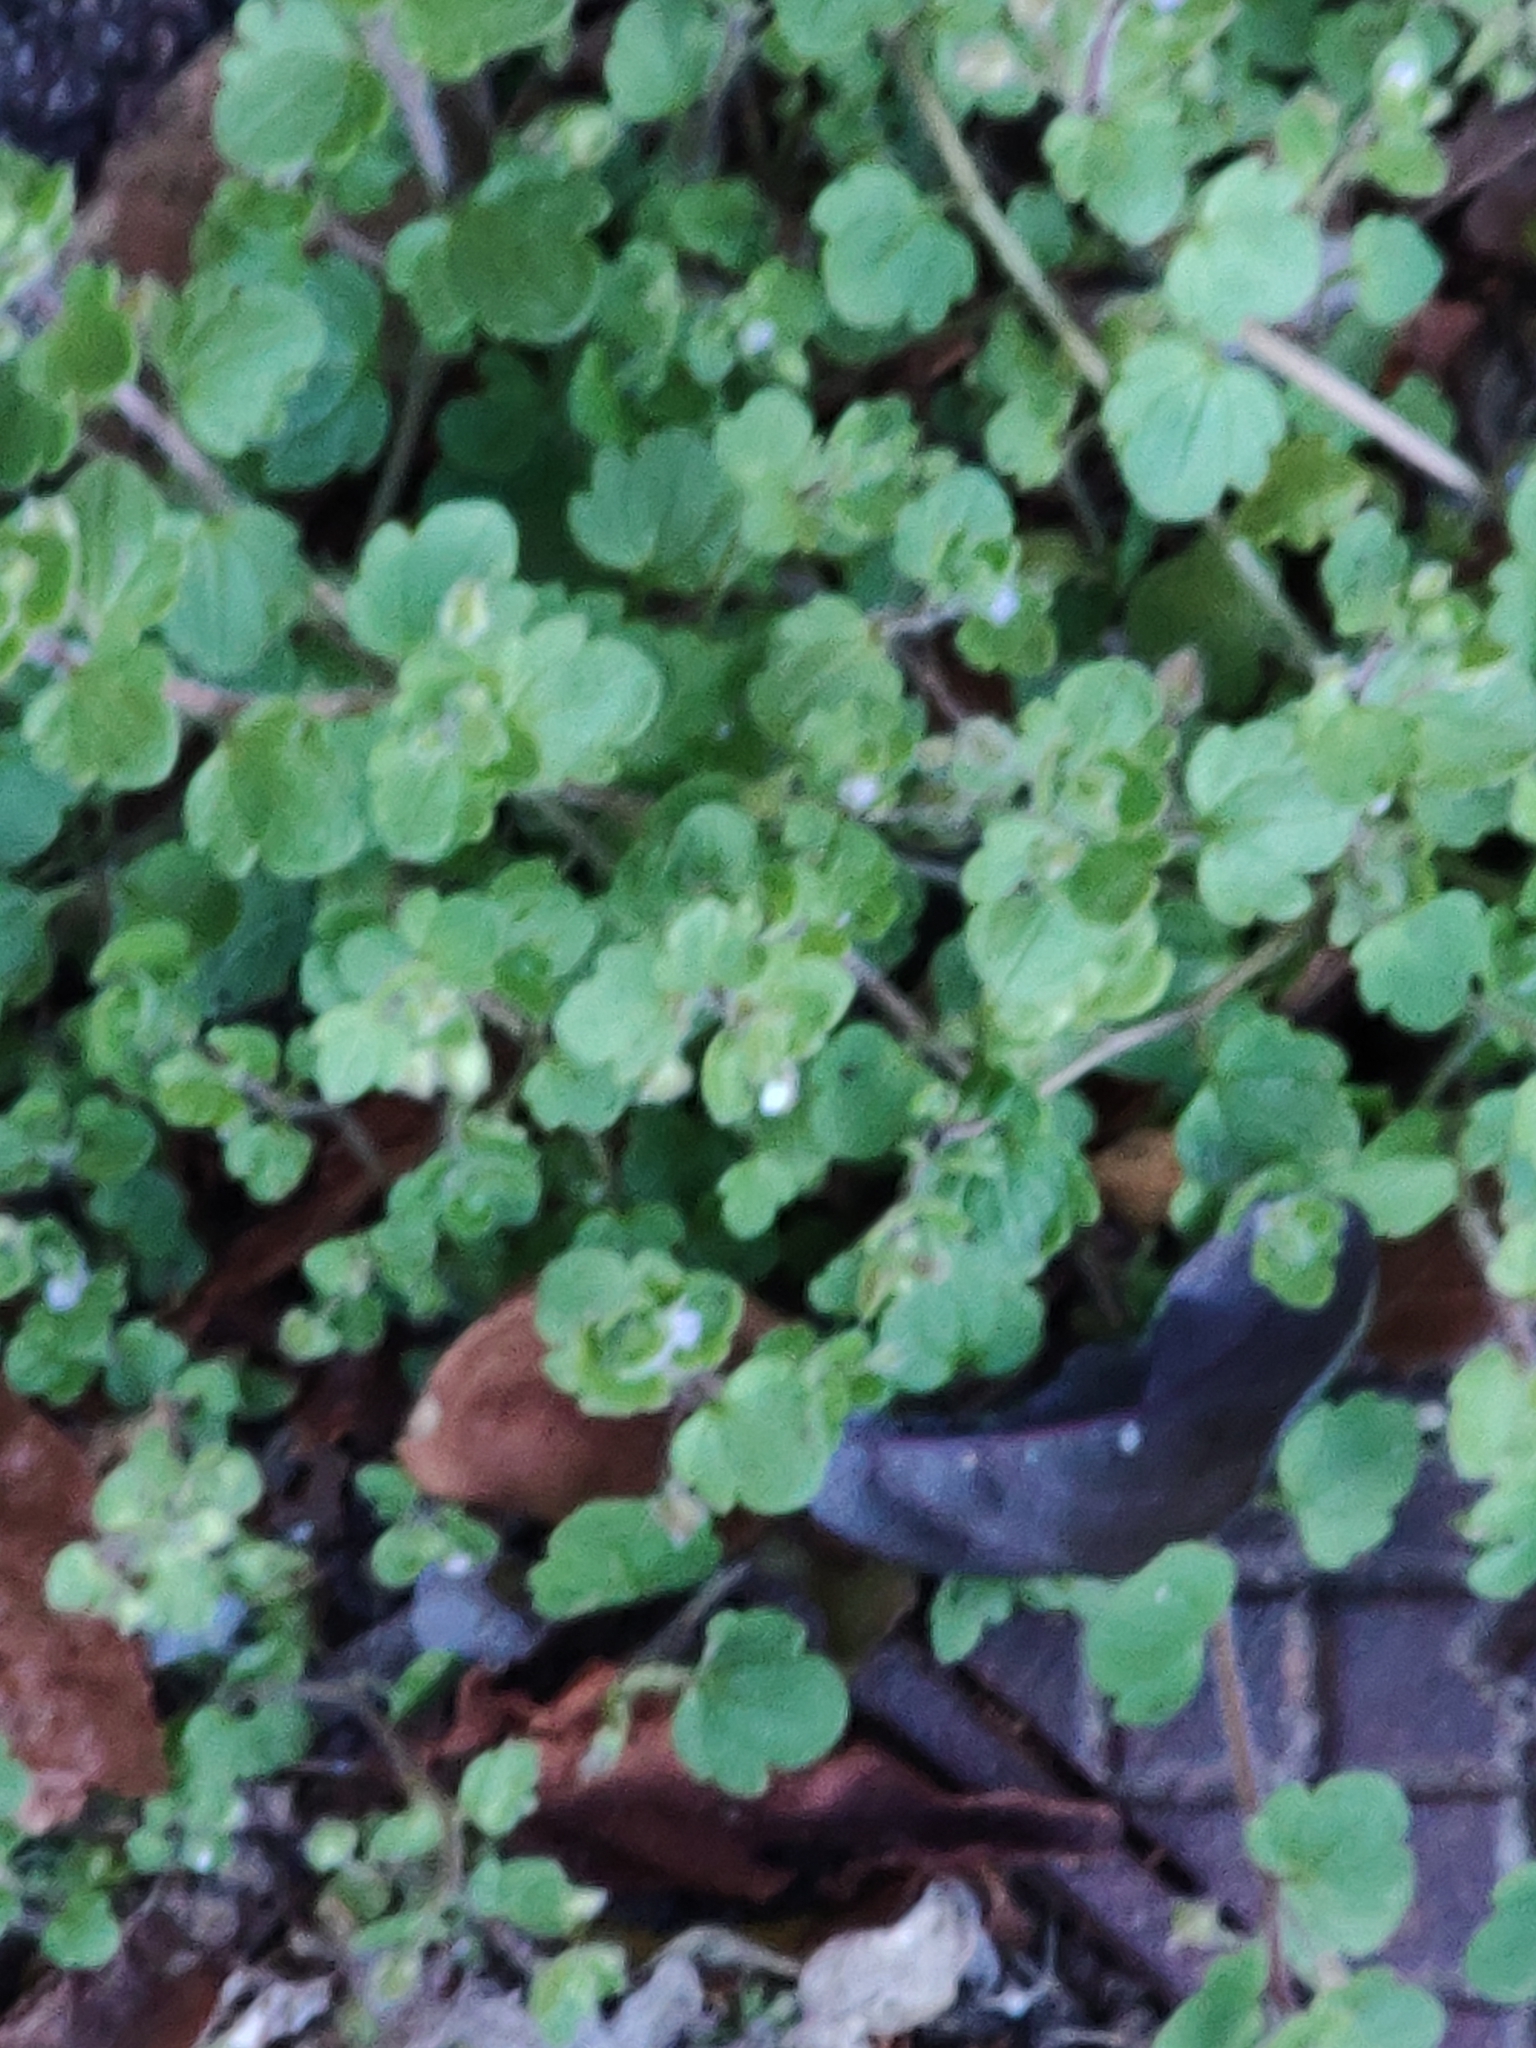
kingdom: Plantae
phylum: Tracheophyta
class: Magnoliopsida
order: Lamiales
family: Plantaginaceae
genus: Veronica
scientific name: Veronica hederifolia
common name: Ivy-leaved speedwell
